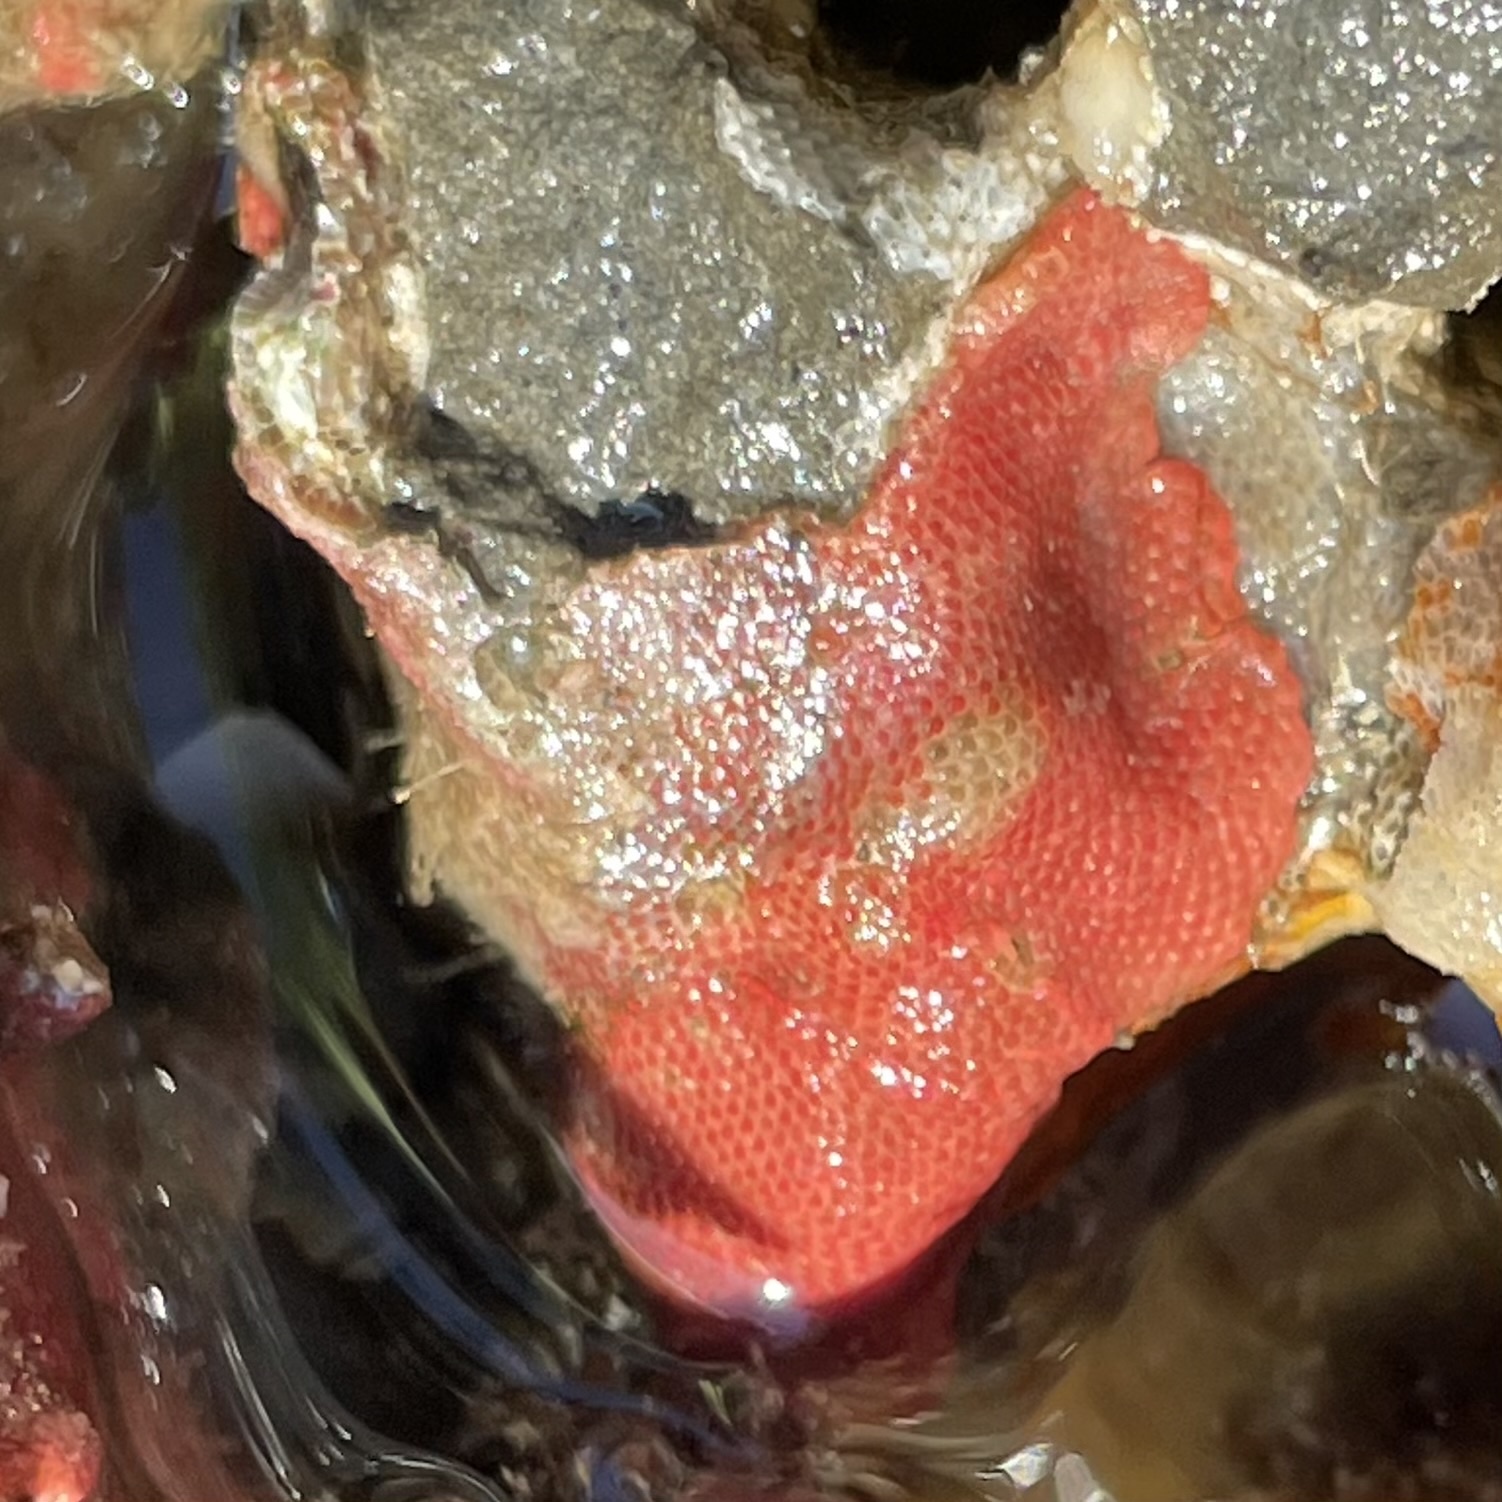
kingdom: Animalia
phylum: Bryozoa
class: Gymnolaemata
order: Cheilostomatida
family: Eurystomellidae
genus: Integripelta
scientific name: Integripelta bilabiata
